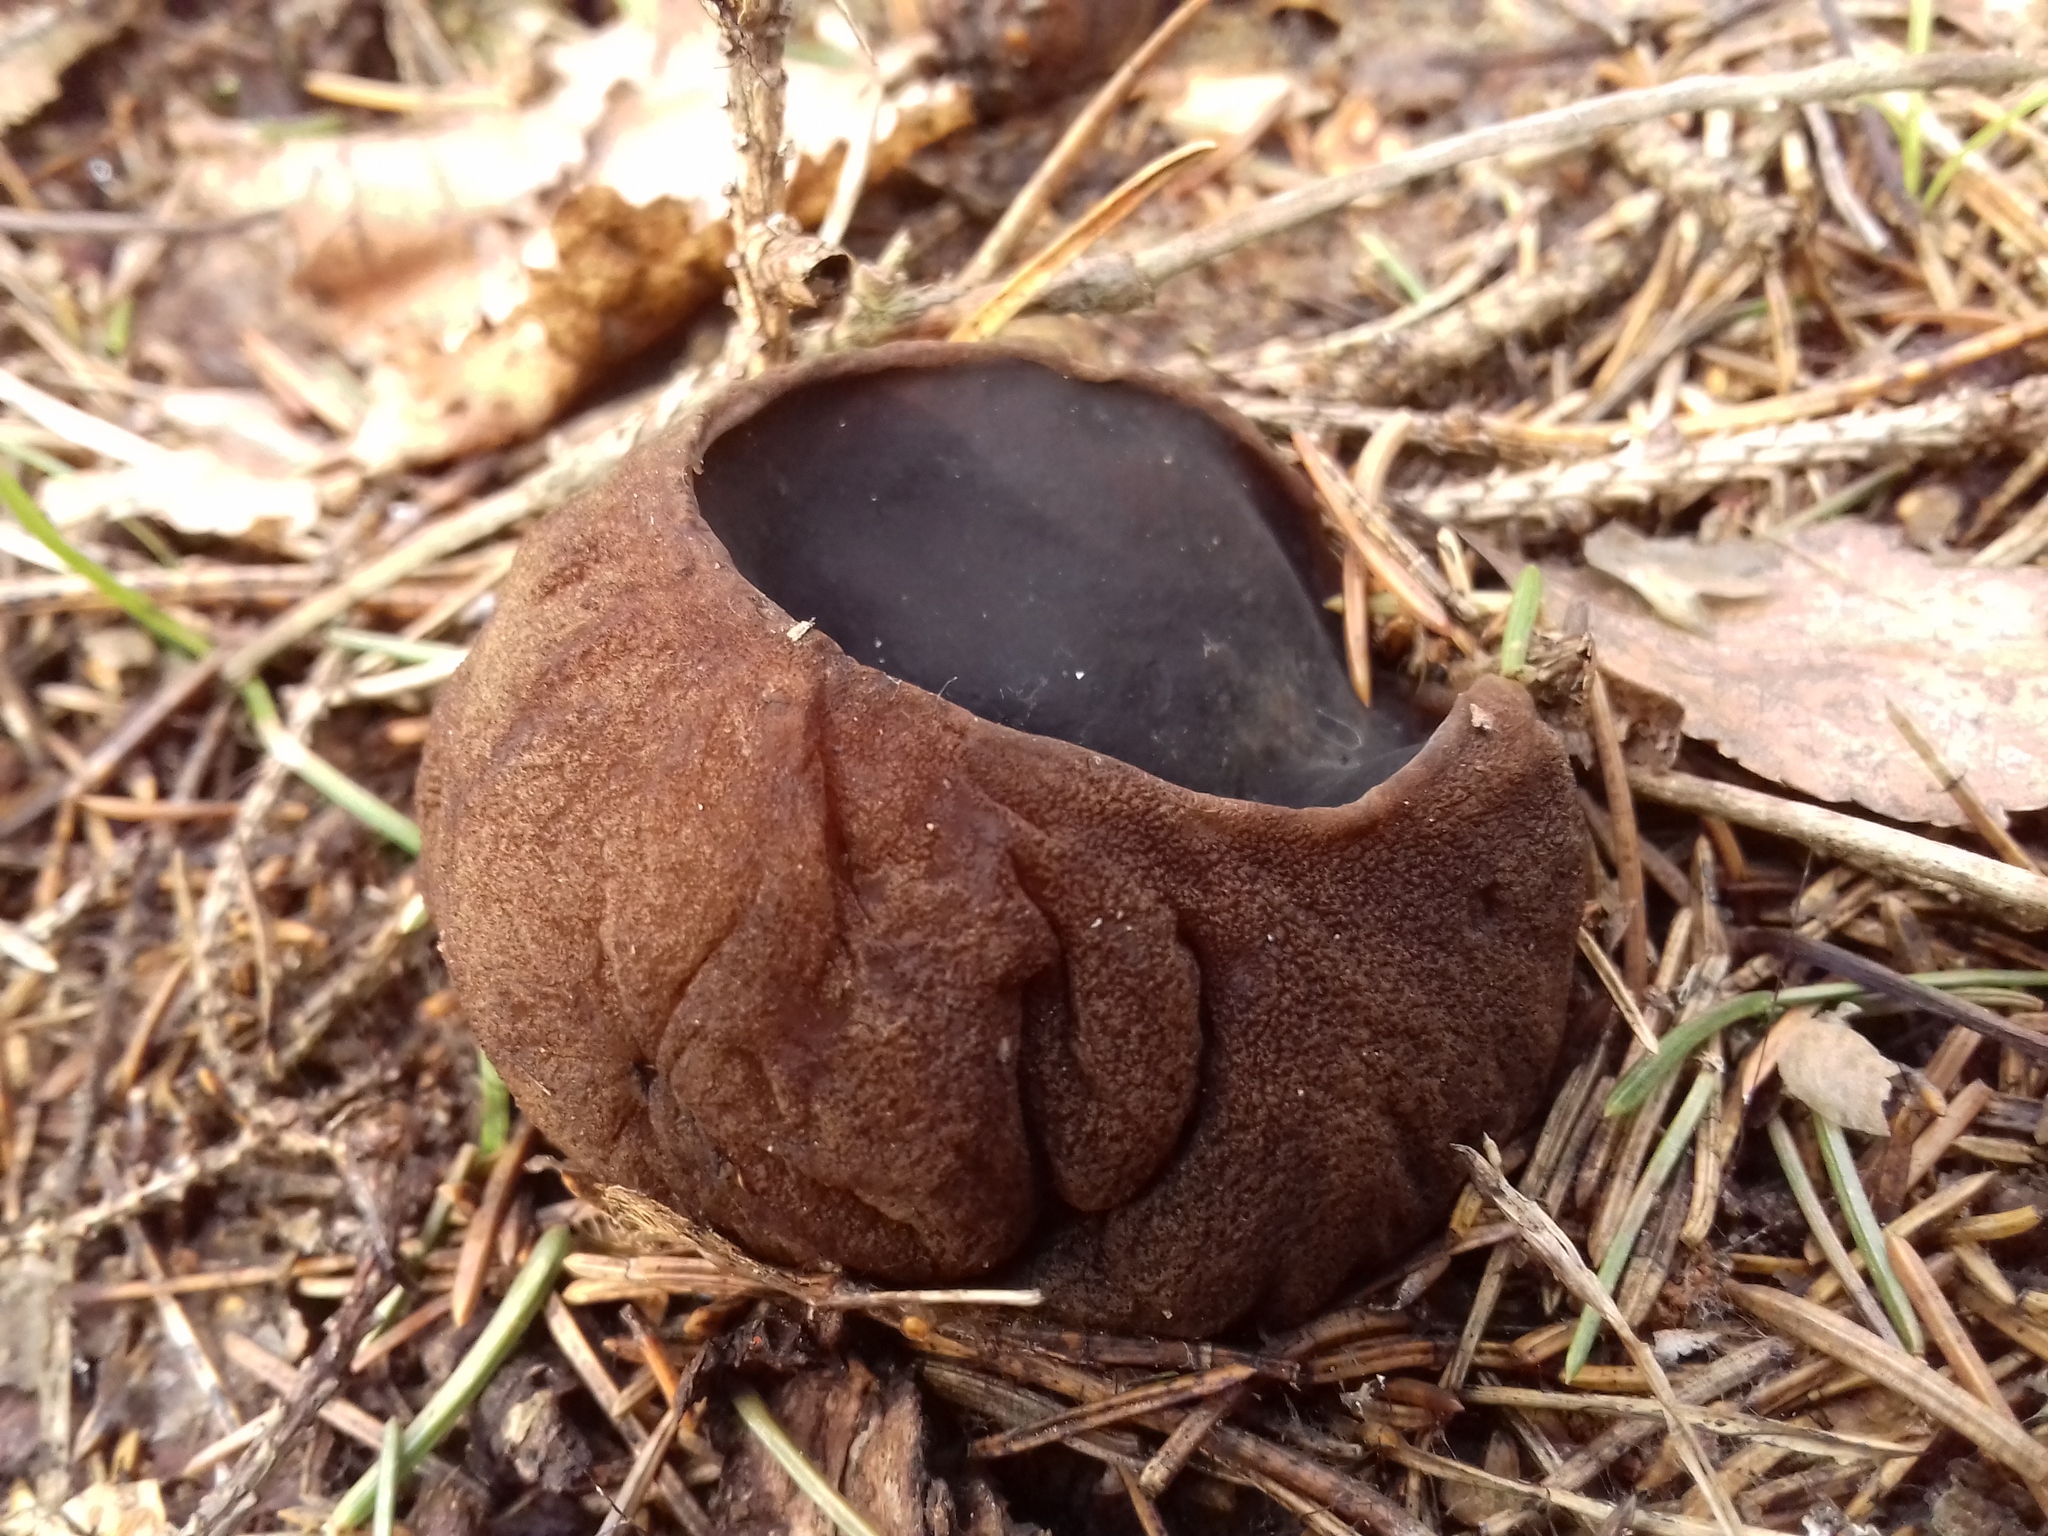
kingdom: Fungi
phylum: Ascomycota
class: Pezizomycetes
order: Pezizales
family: Sarcosomataceae
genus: Sarcosoma
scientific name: Sarcosoma globosum
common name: Charred-pancake cup
